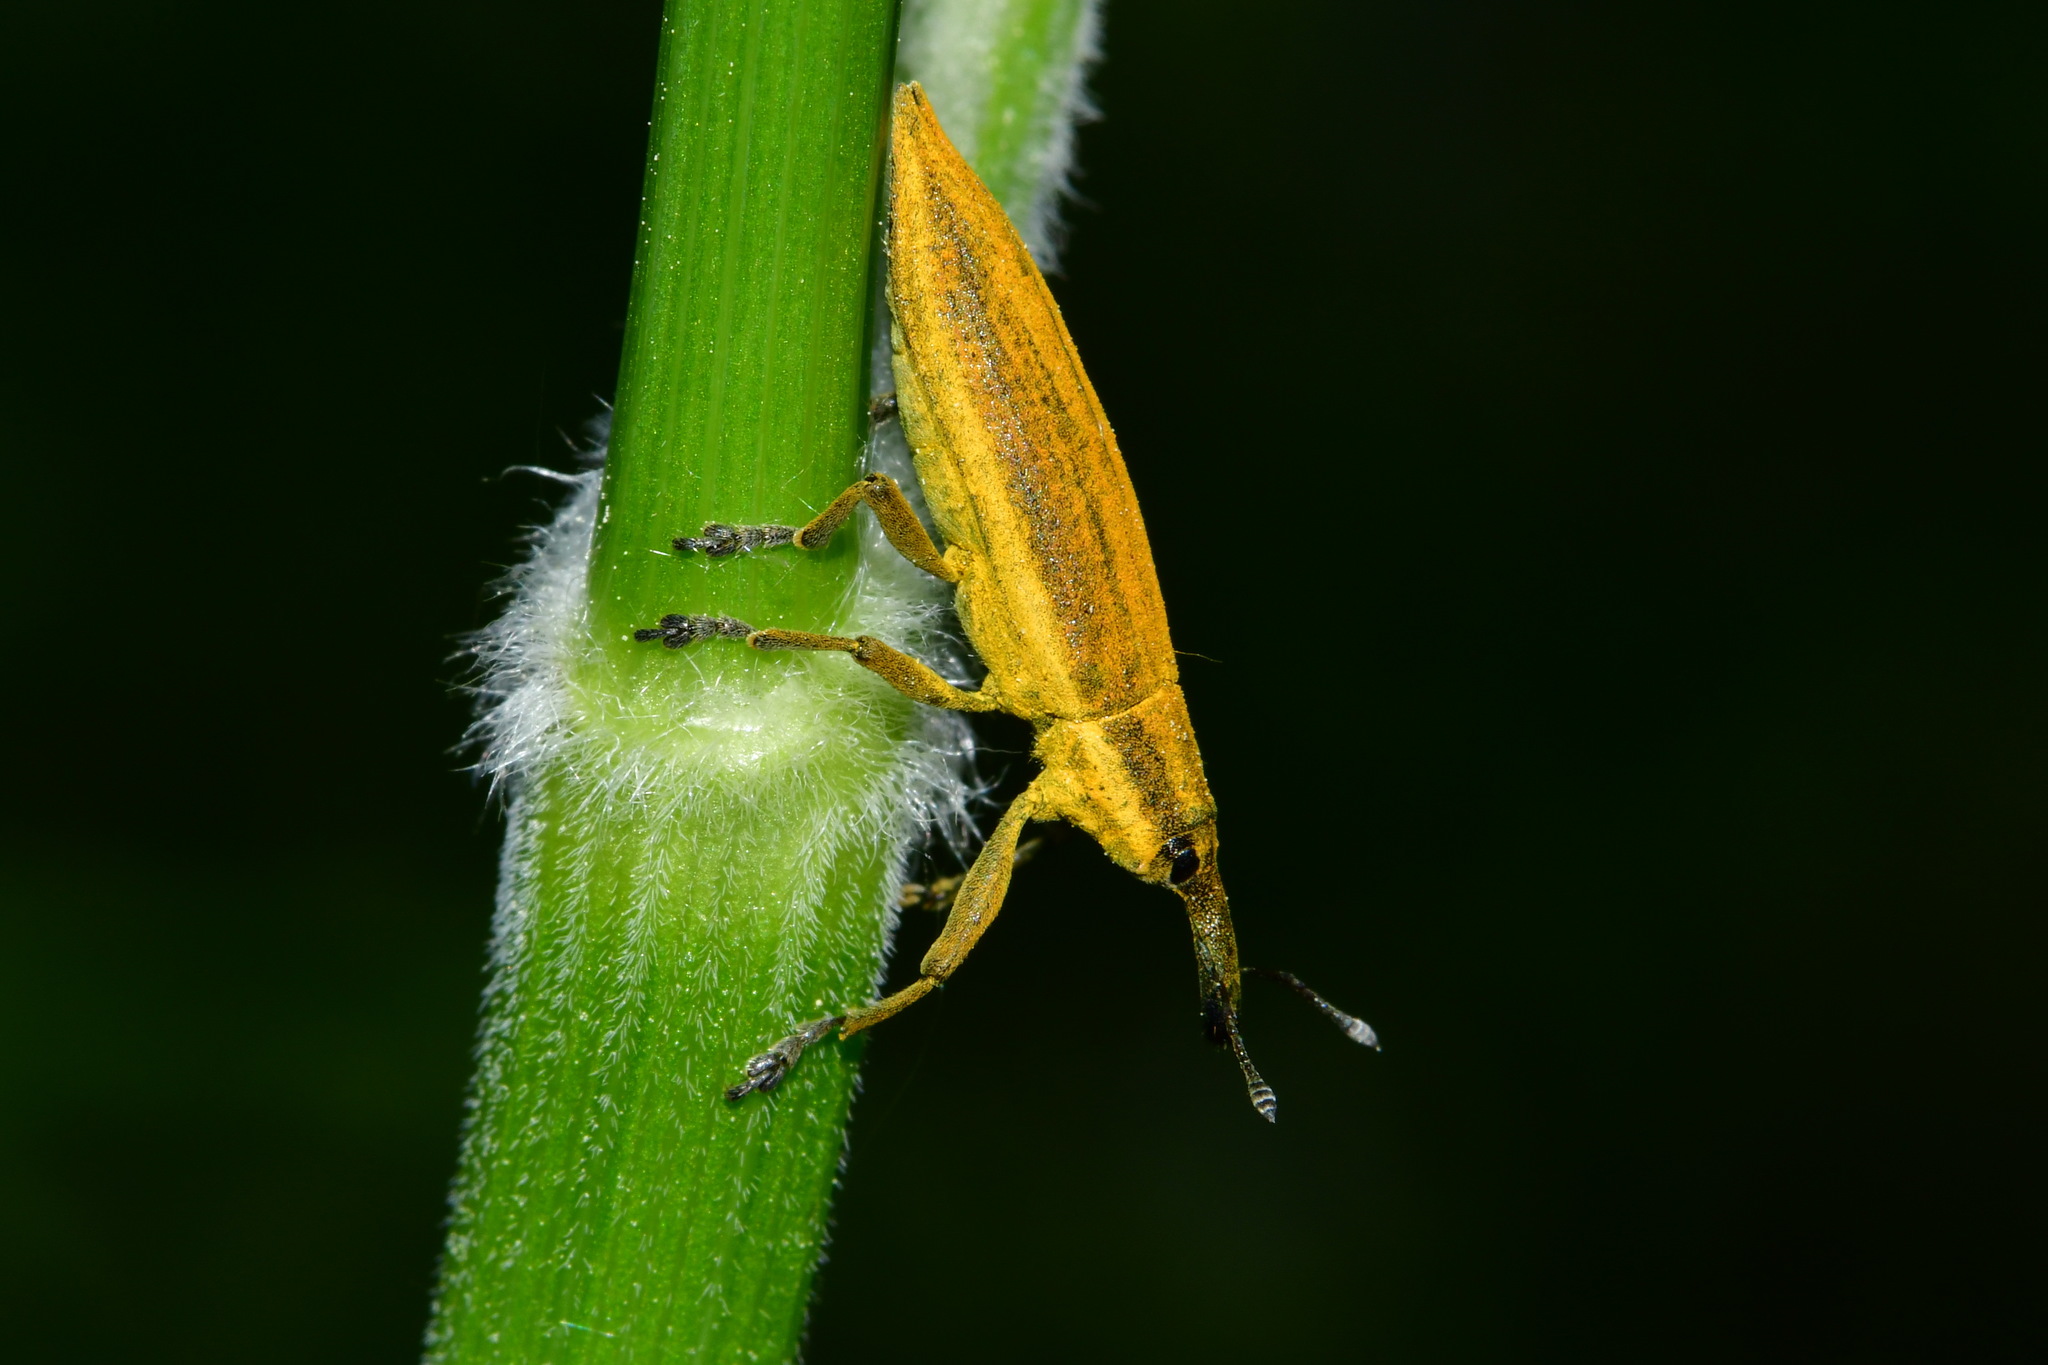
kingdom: Animalia
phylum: Arthropoda
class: Insecta
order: Coleoptera
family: Curculionidae
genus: Lixus
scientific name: Lixus iridis
